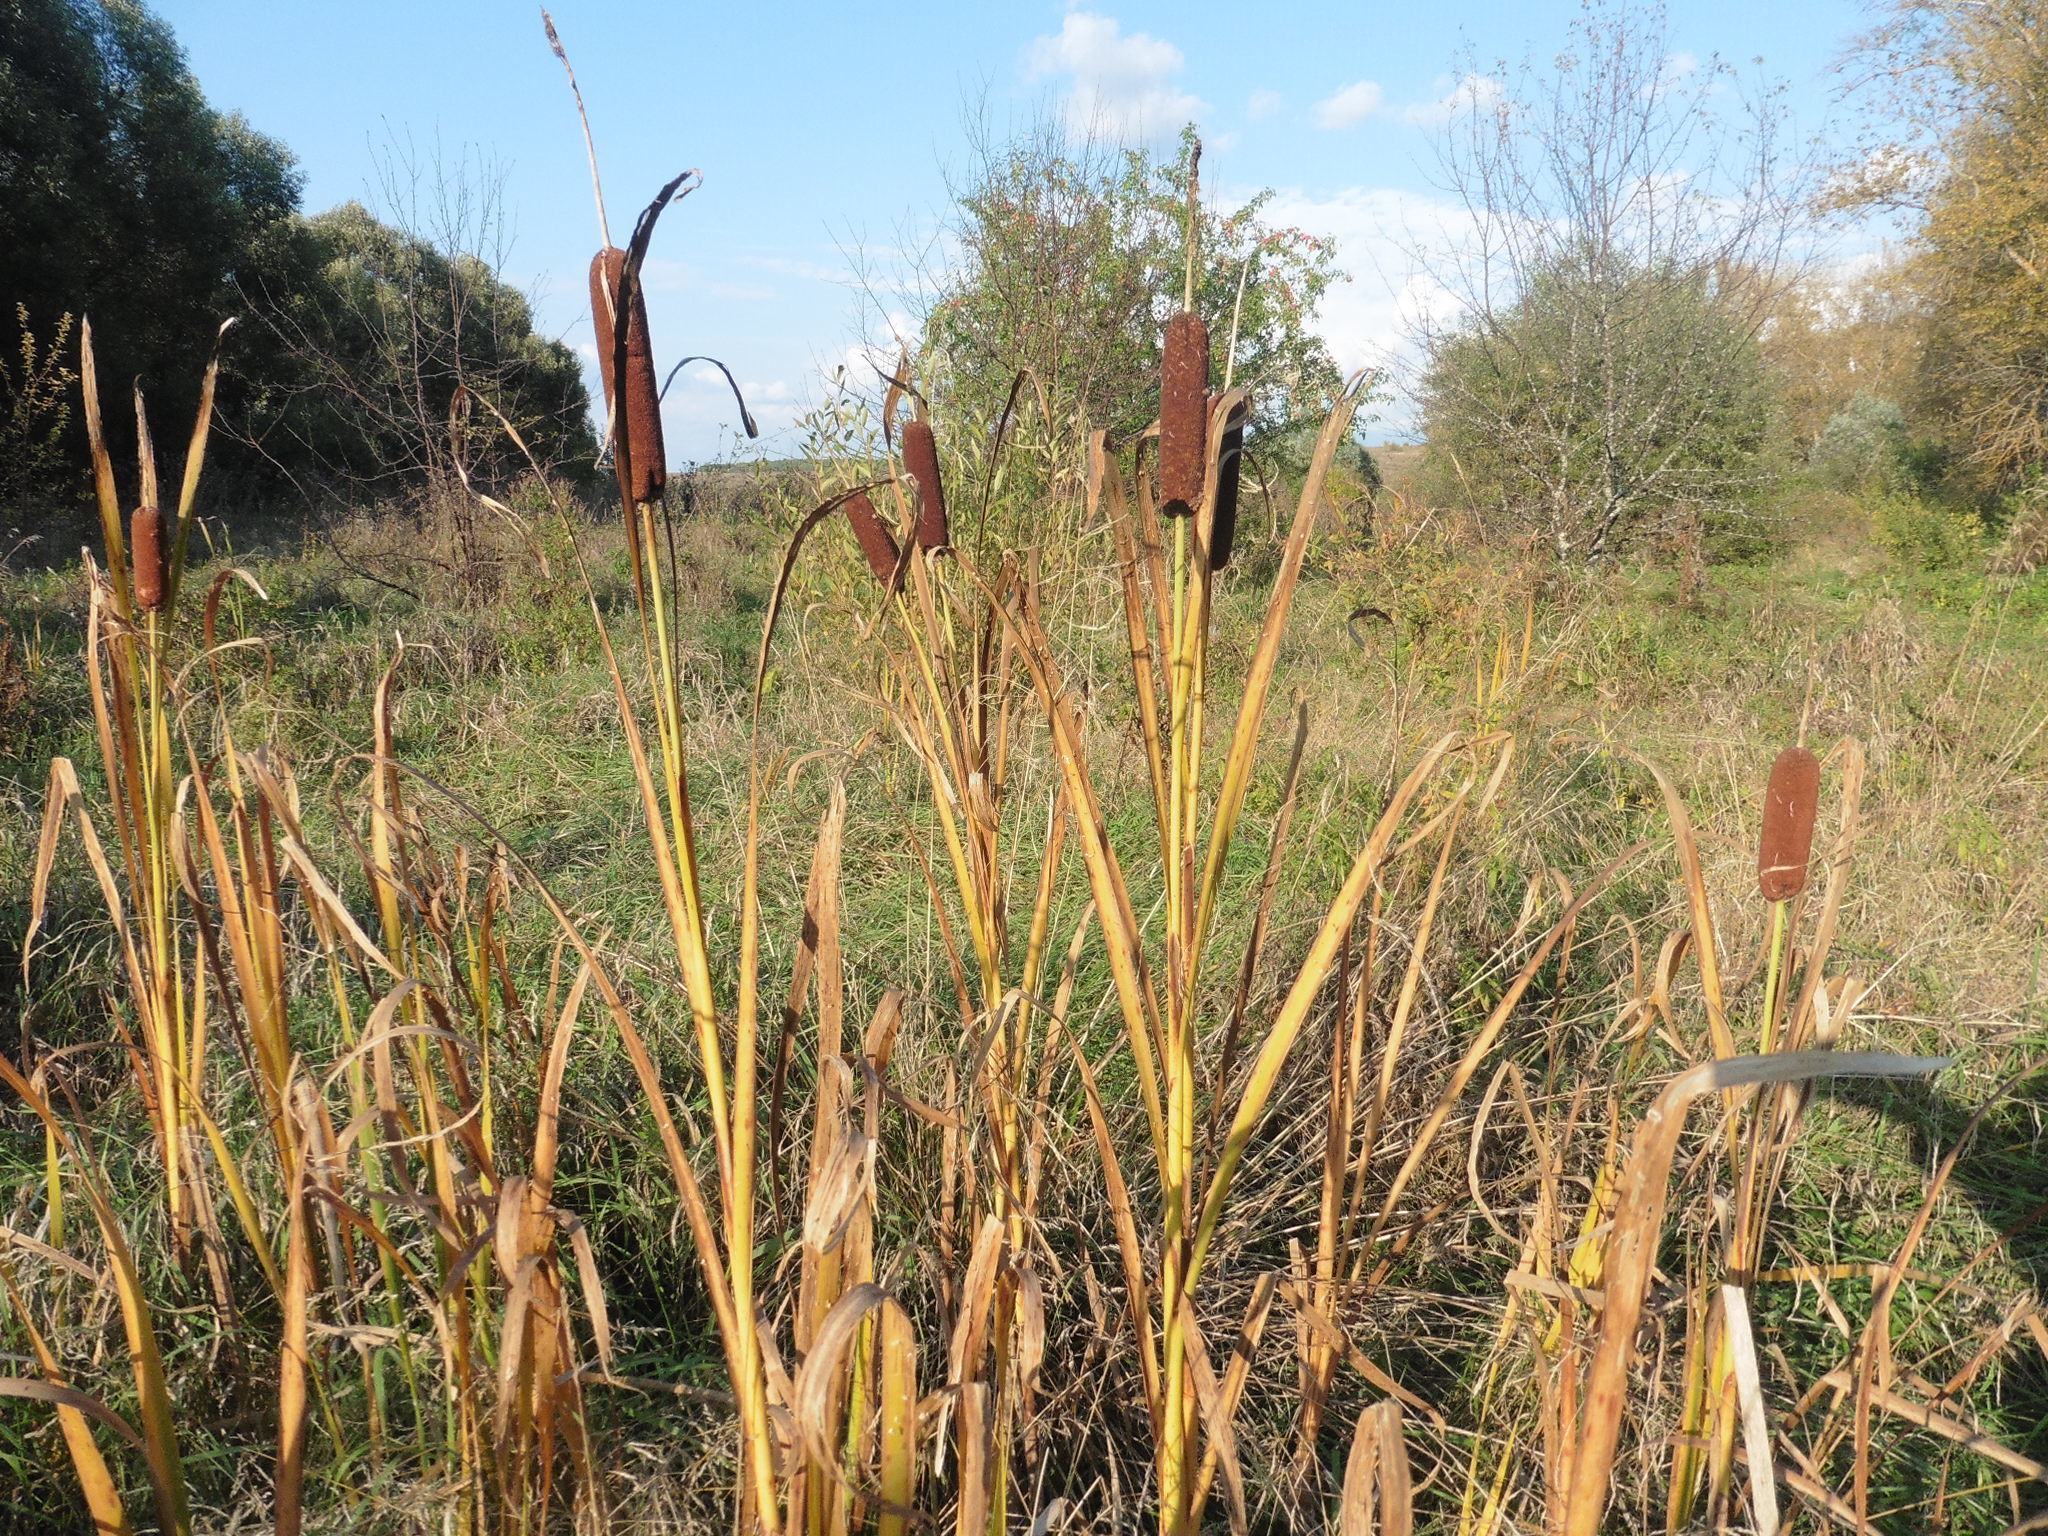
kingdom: Plantae
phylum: Tracheophyta
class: Liliopsida
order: Poales
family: Typhaceae
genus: Typha
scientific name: Typha latifolia
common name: Broadleaf cattail
